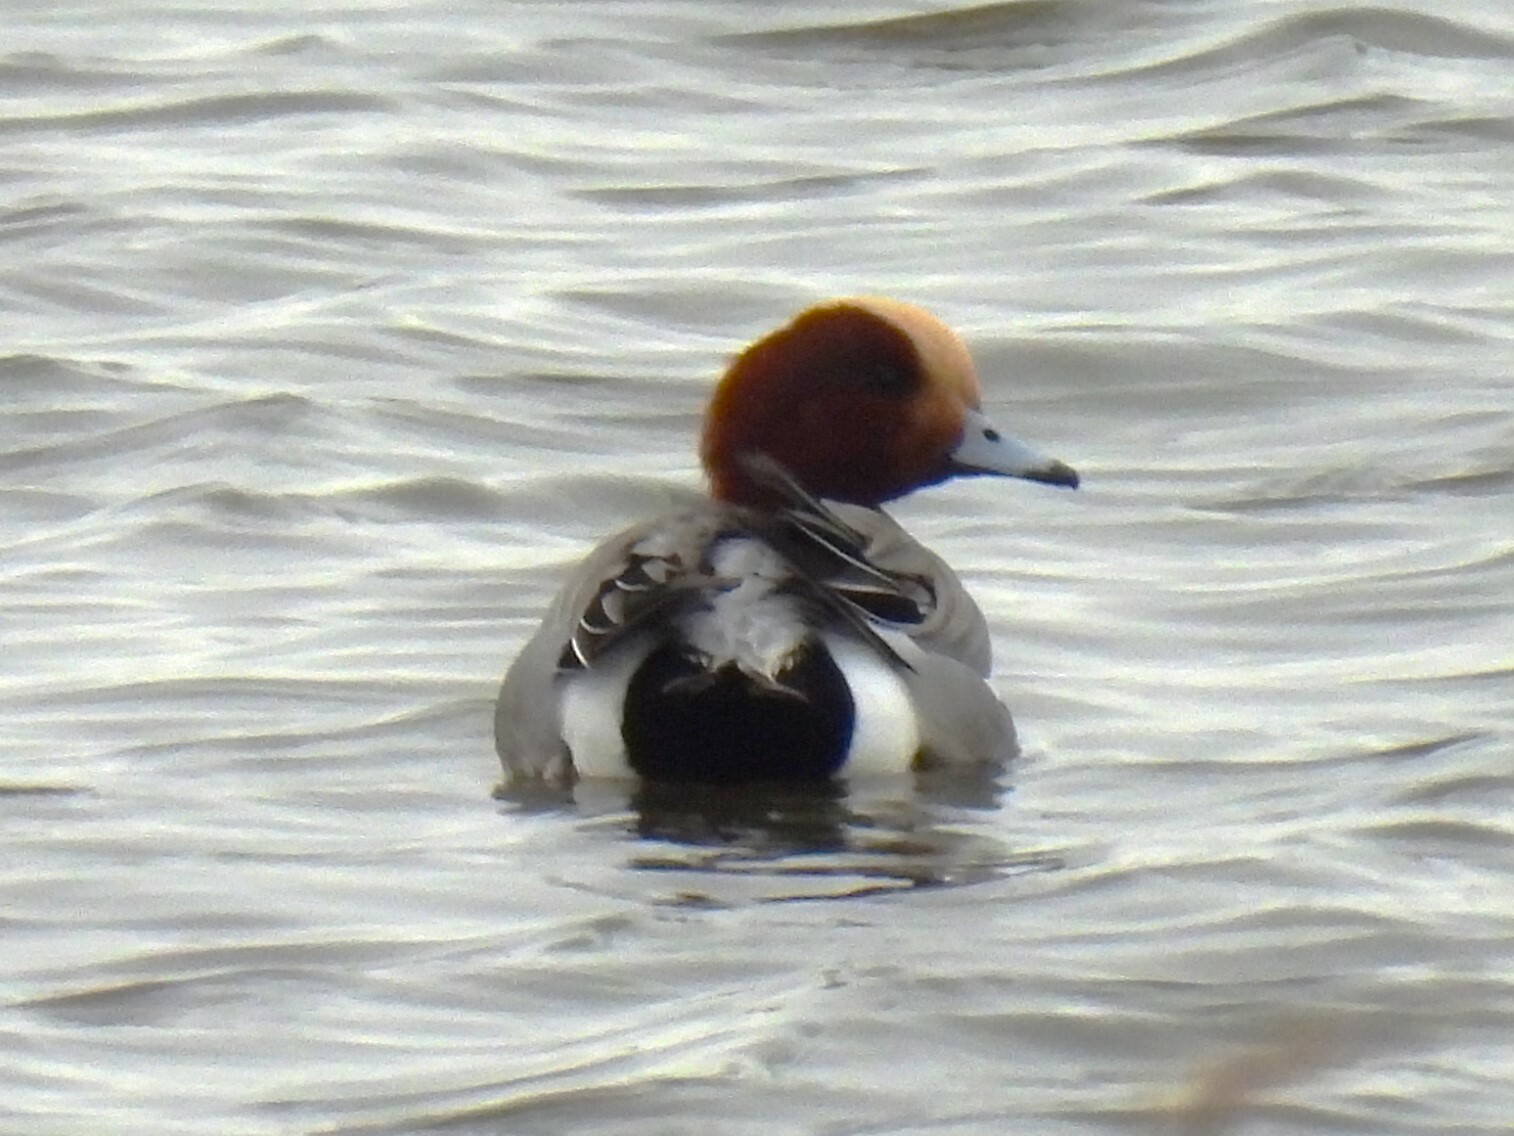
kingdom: Animalia
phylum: Chordata
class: Aves
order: Anseriformes
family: Anatidae
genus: Mareca
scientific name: Mareca penelope
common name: Eurasian wigeon
